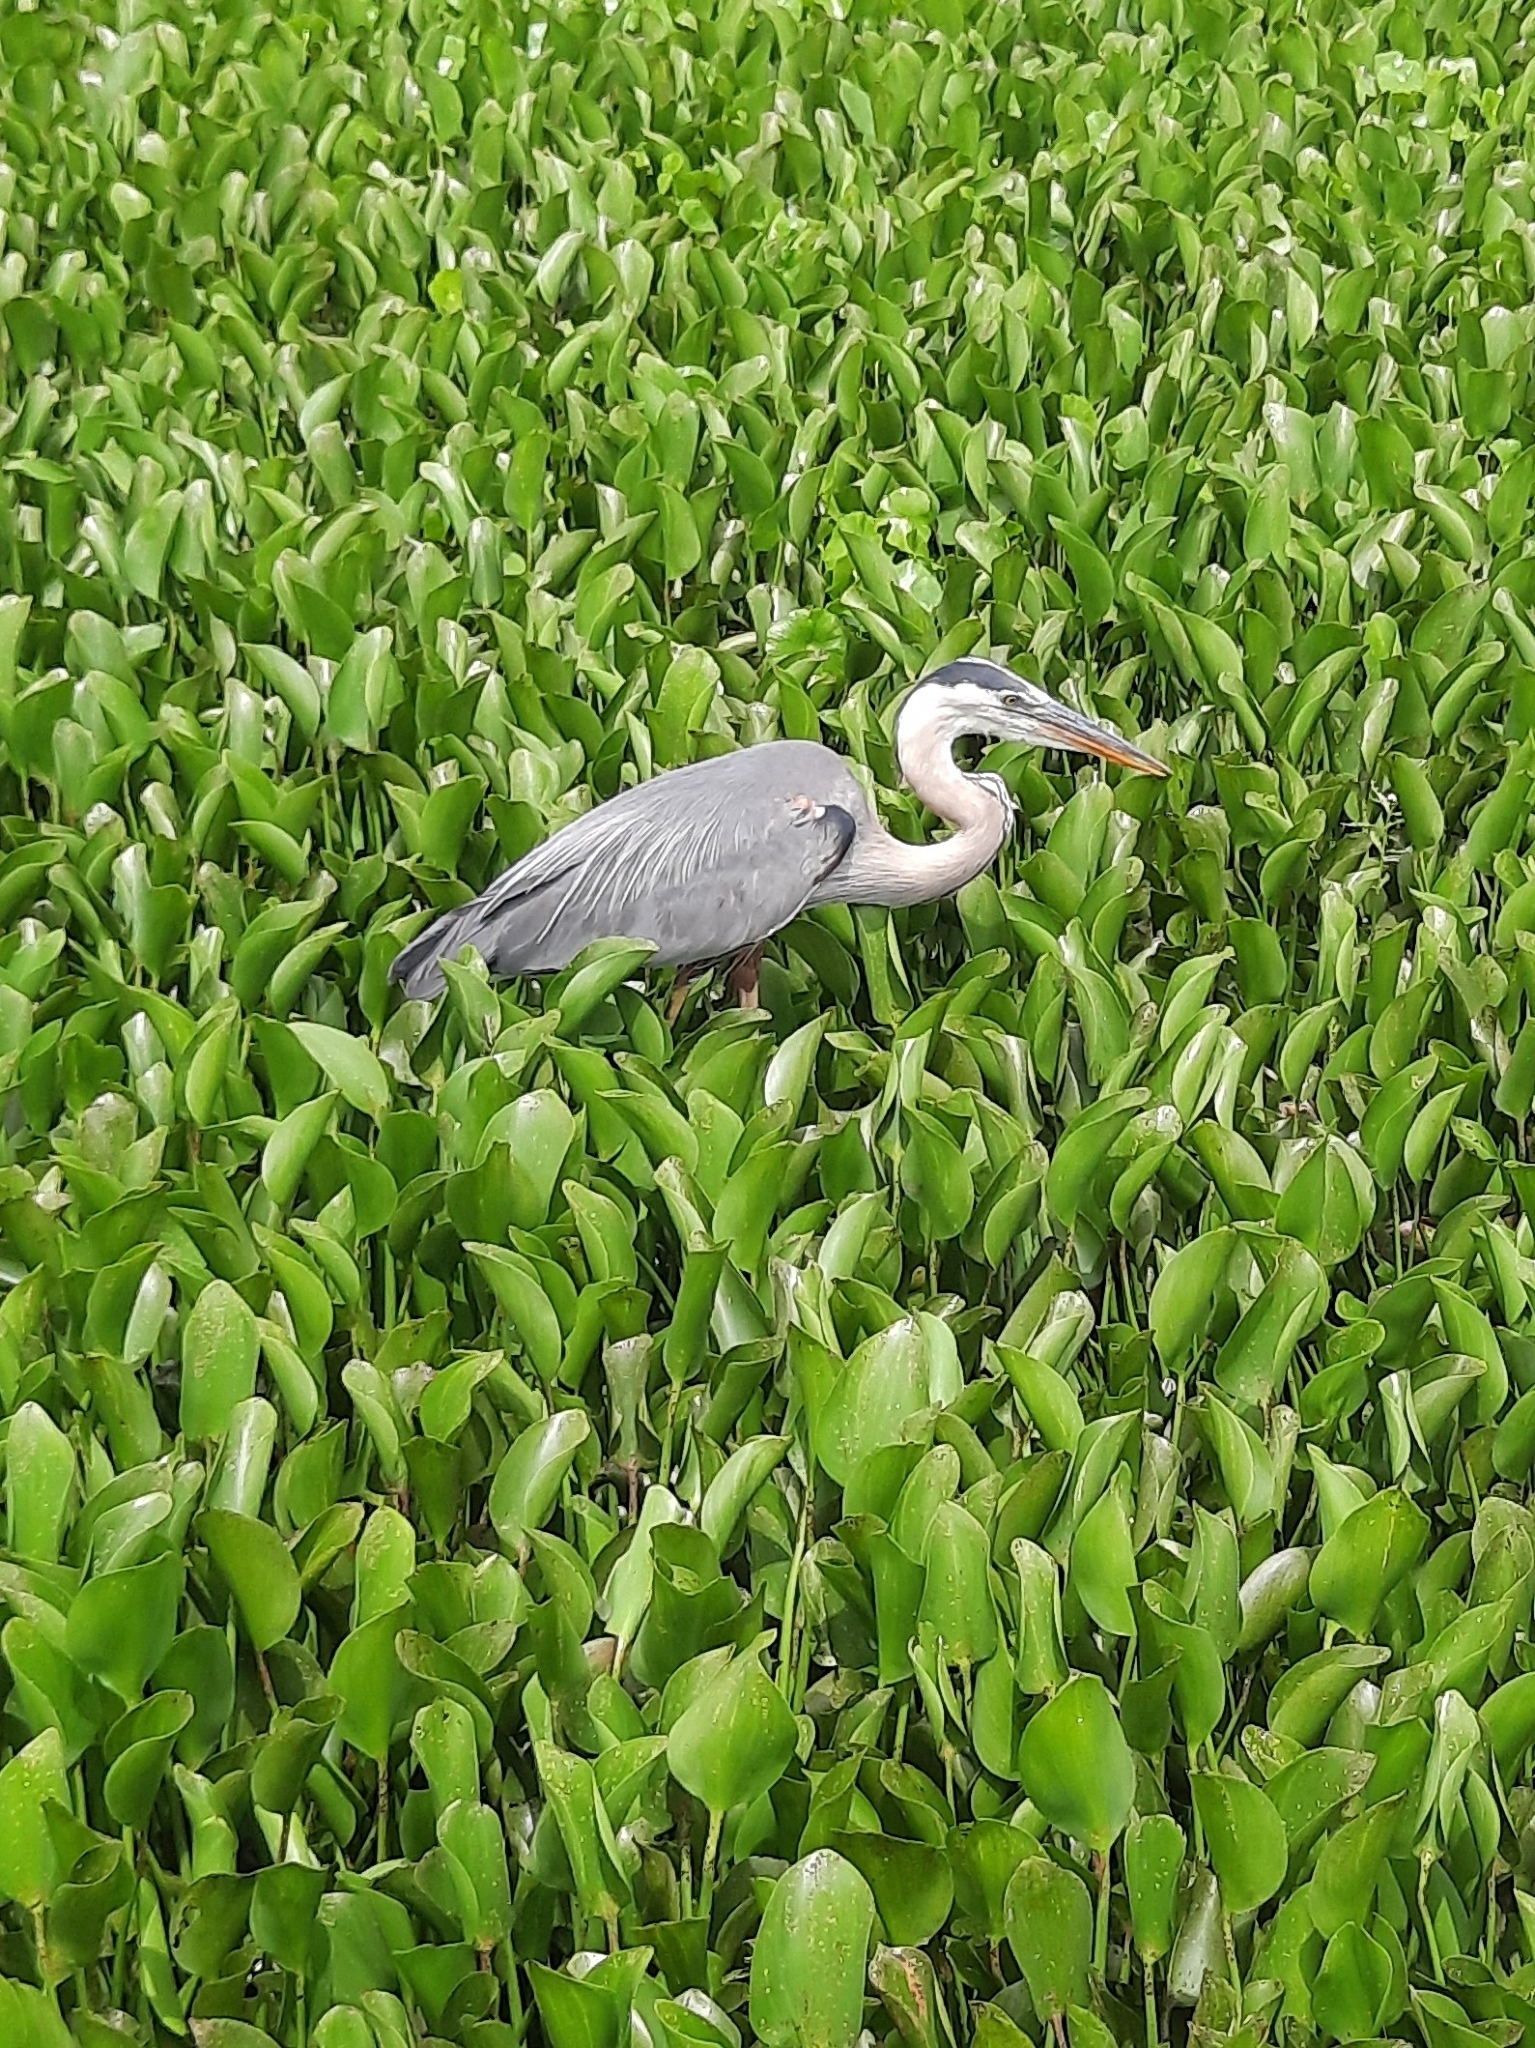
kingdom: Animalia
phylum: Chordata
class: Aves
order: Pelecaniformes
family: Ardeidae
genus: Ardea
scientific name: Ardea herodias
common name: Great blue heron
